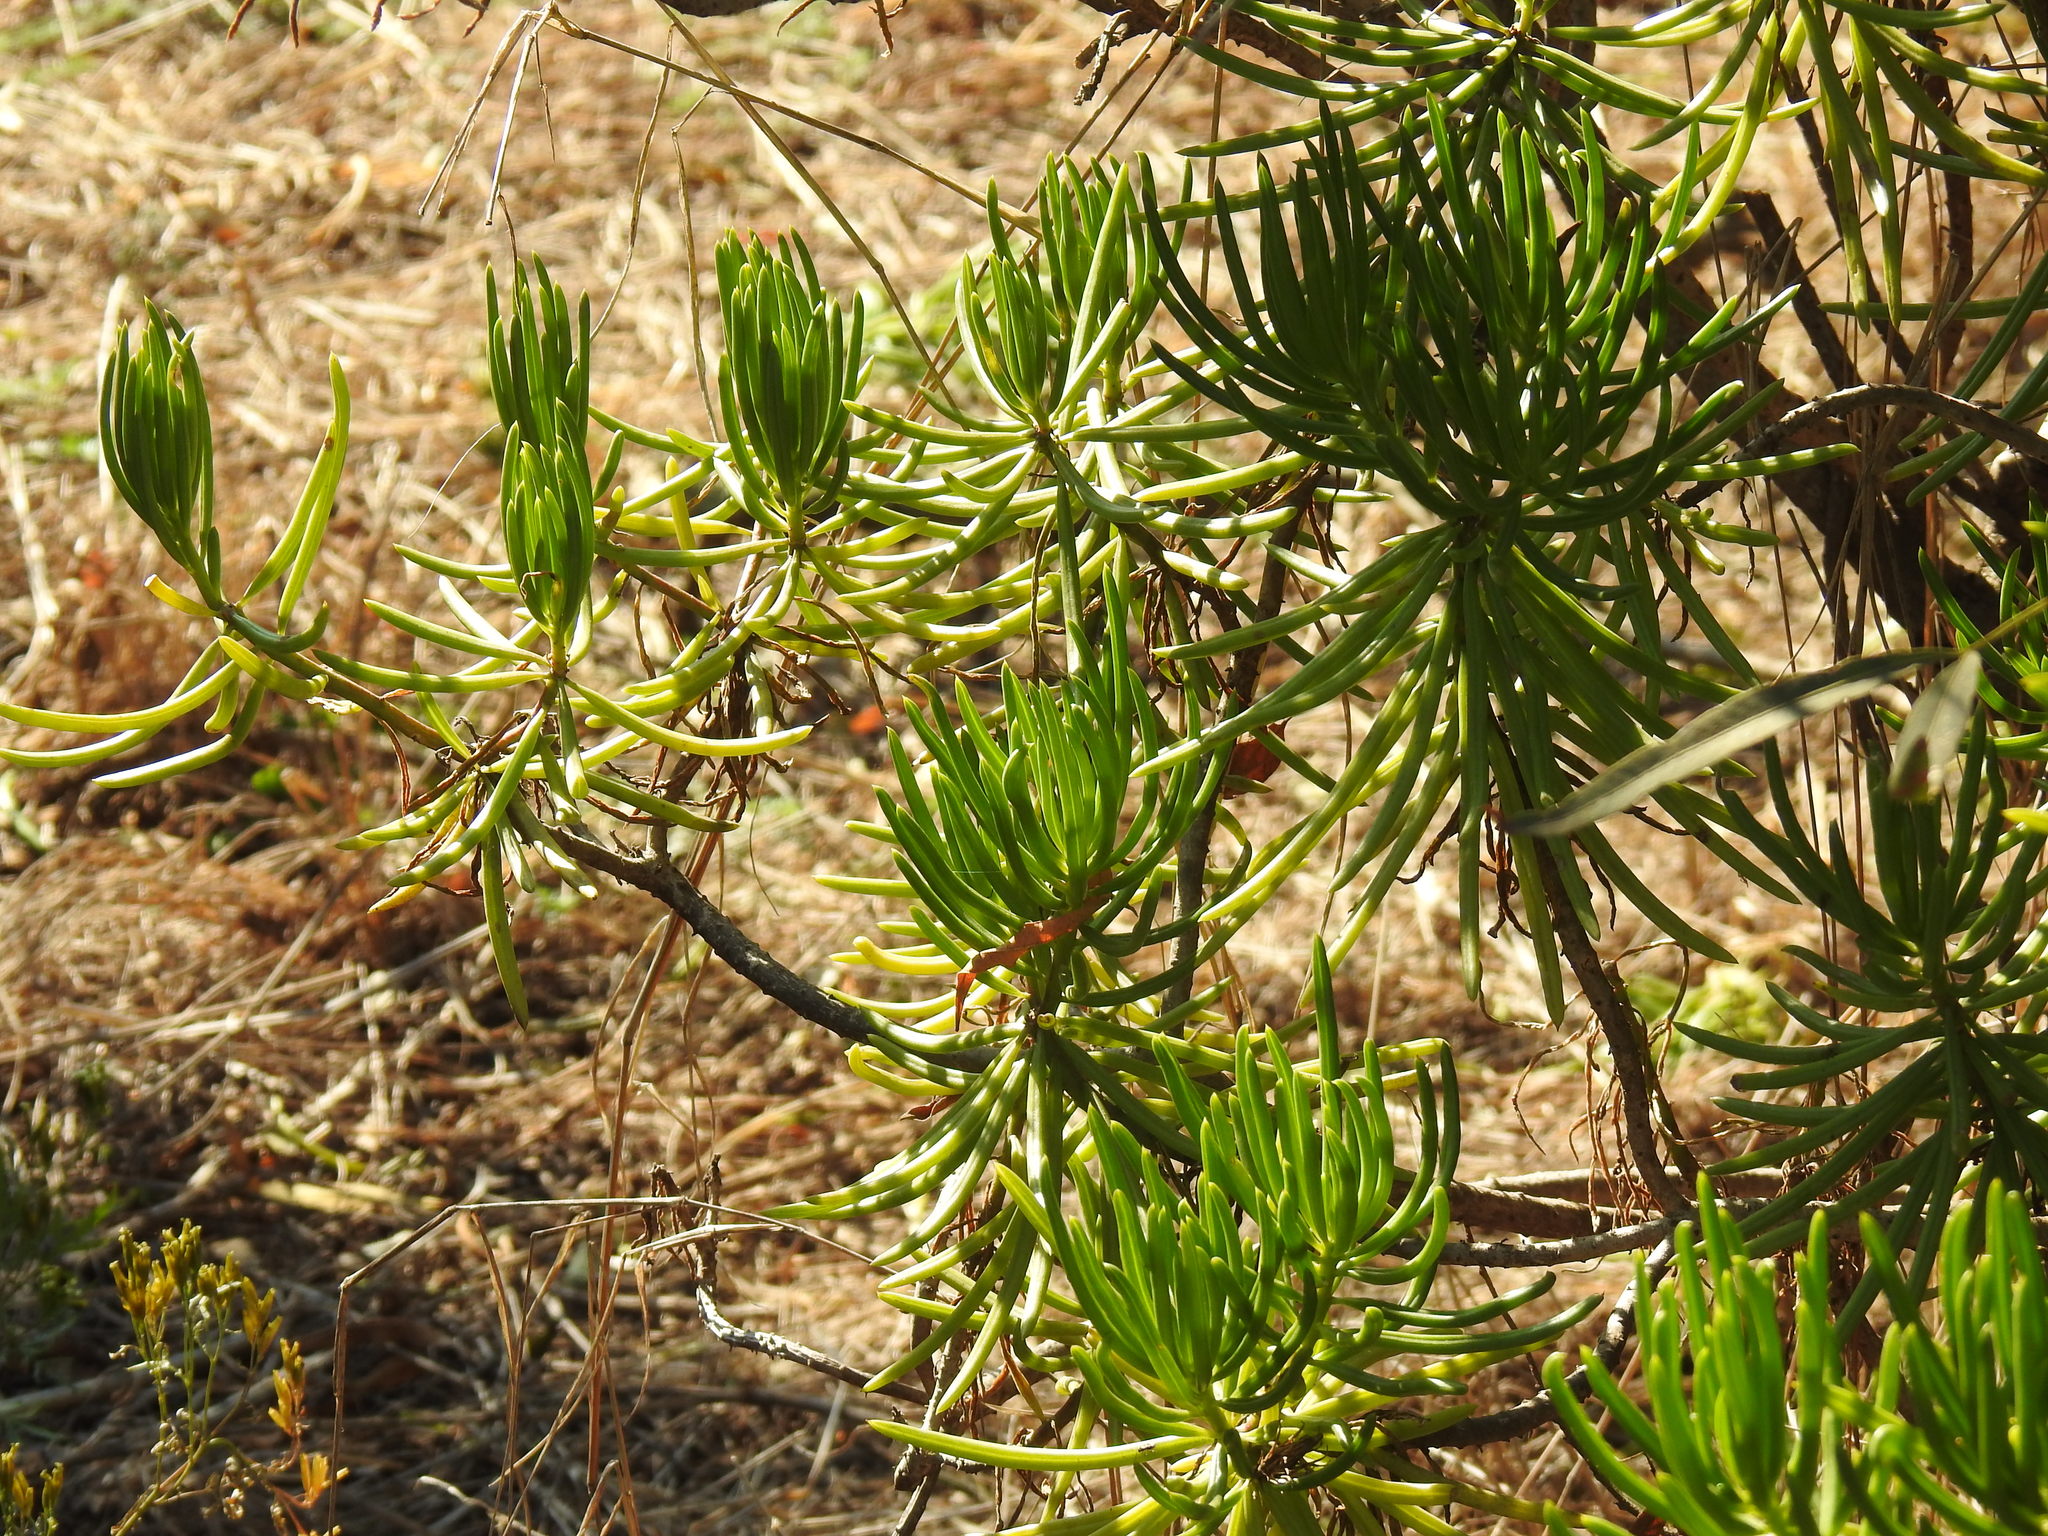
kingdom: Plantae
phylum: Tracheophyta
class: Magnoliopsida
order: Asterales
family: Asteraceae
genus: Kleinia
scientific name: Kleinia barbertonica
